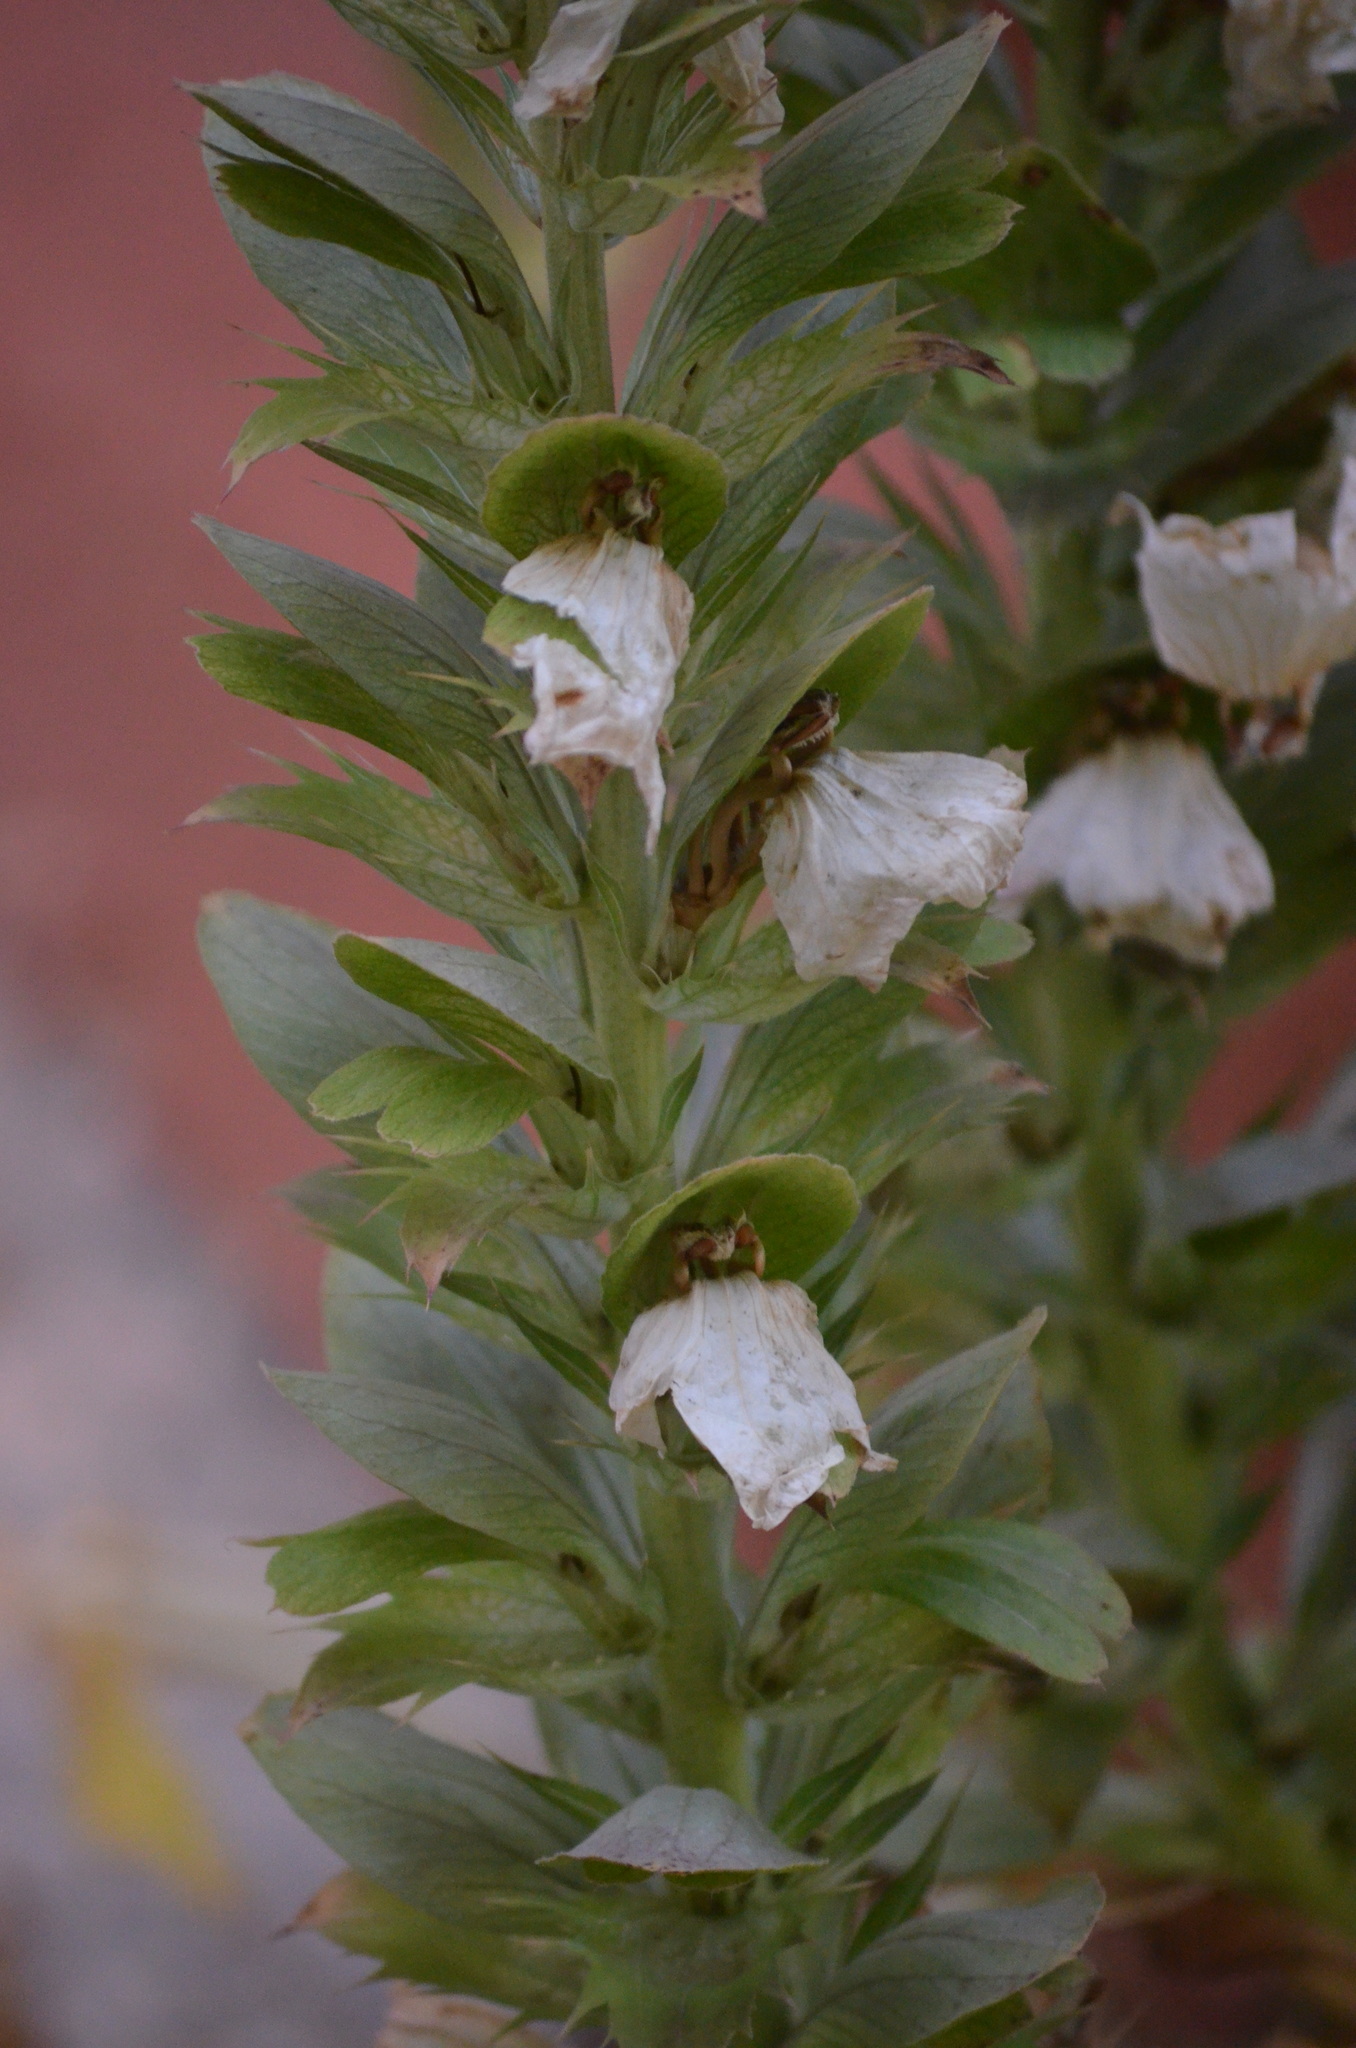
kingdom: Plantae
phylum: Tracheophyta
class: Magnoliopsida
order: Lamiales
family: Acanthaceae
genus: Acanthus
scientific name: Acanthus mollis
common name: Bear's-breech
